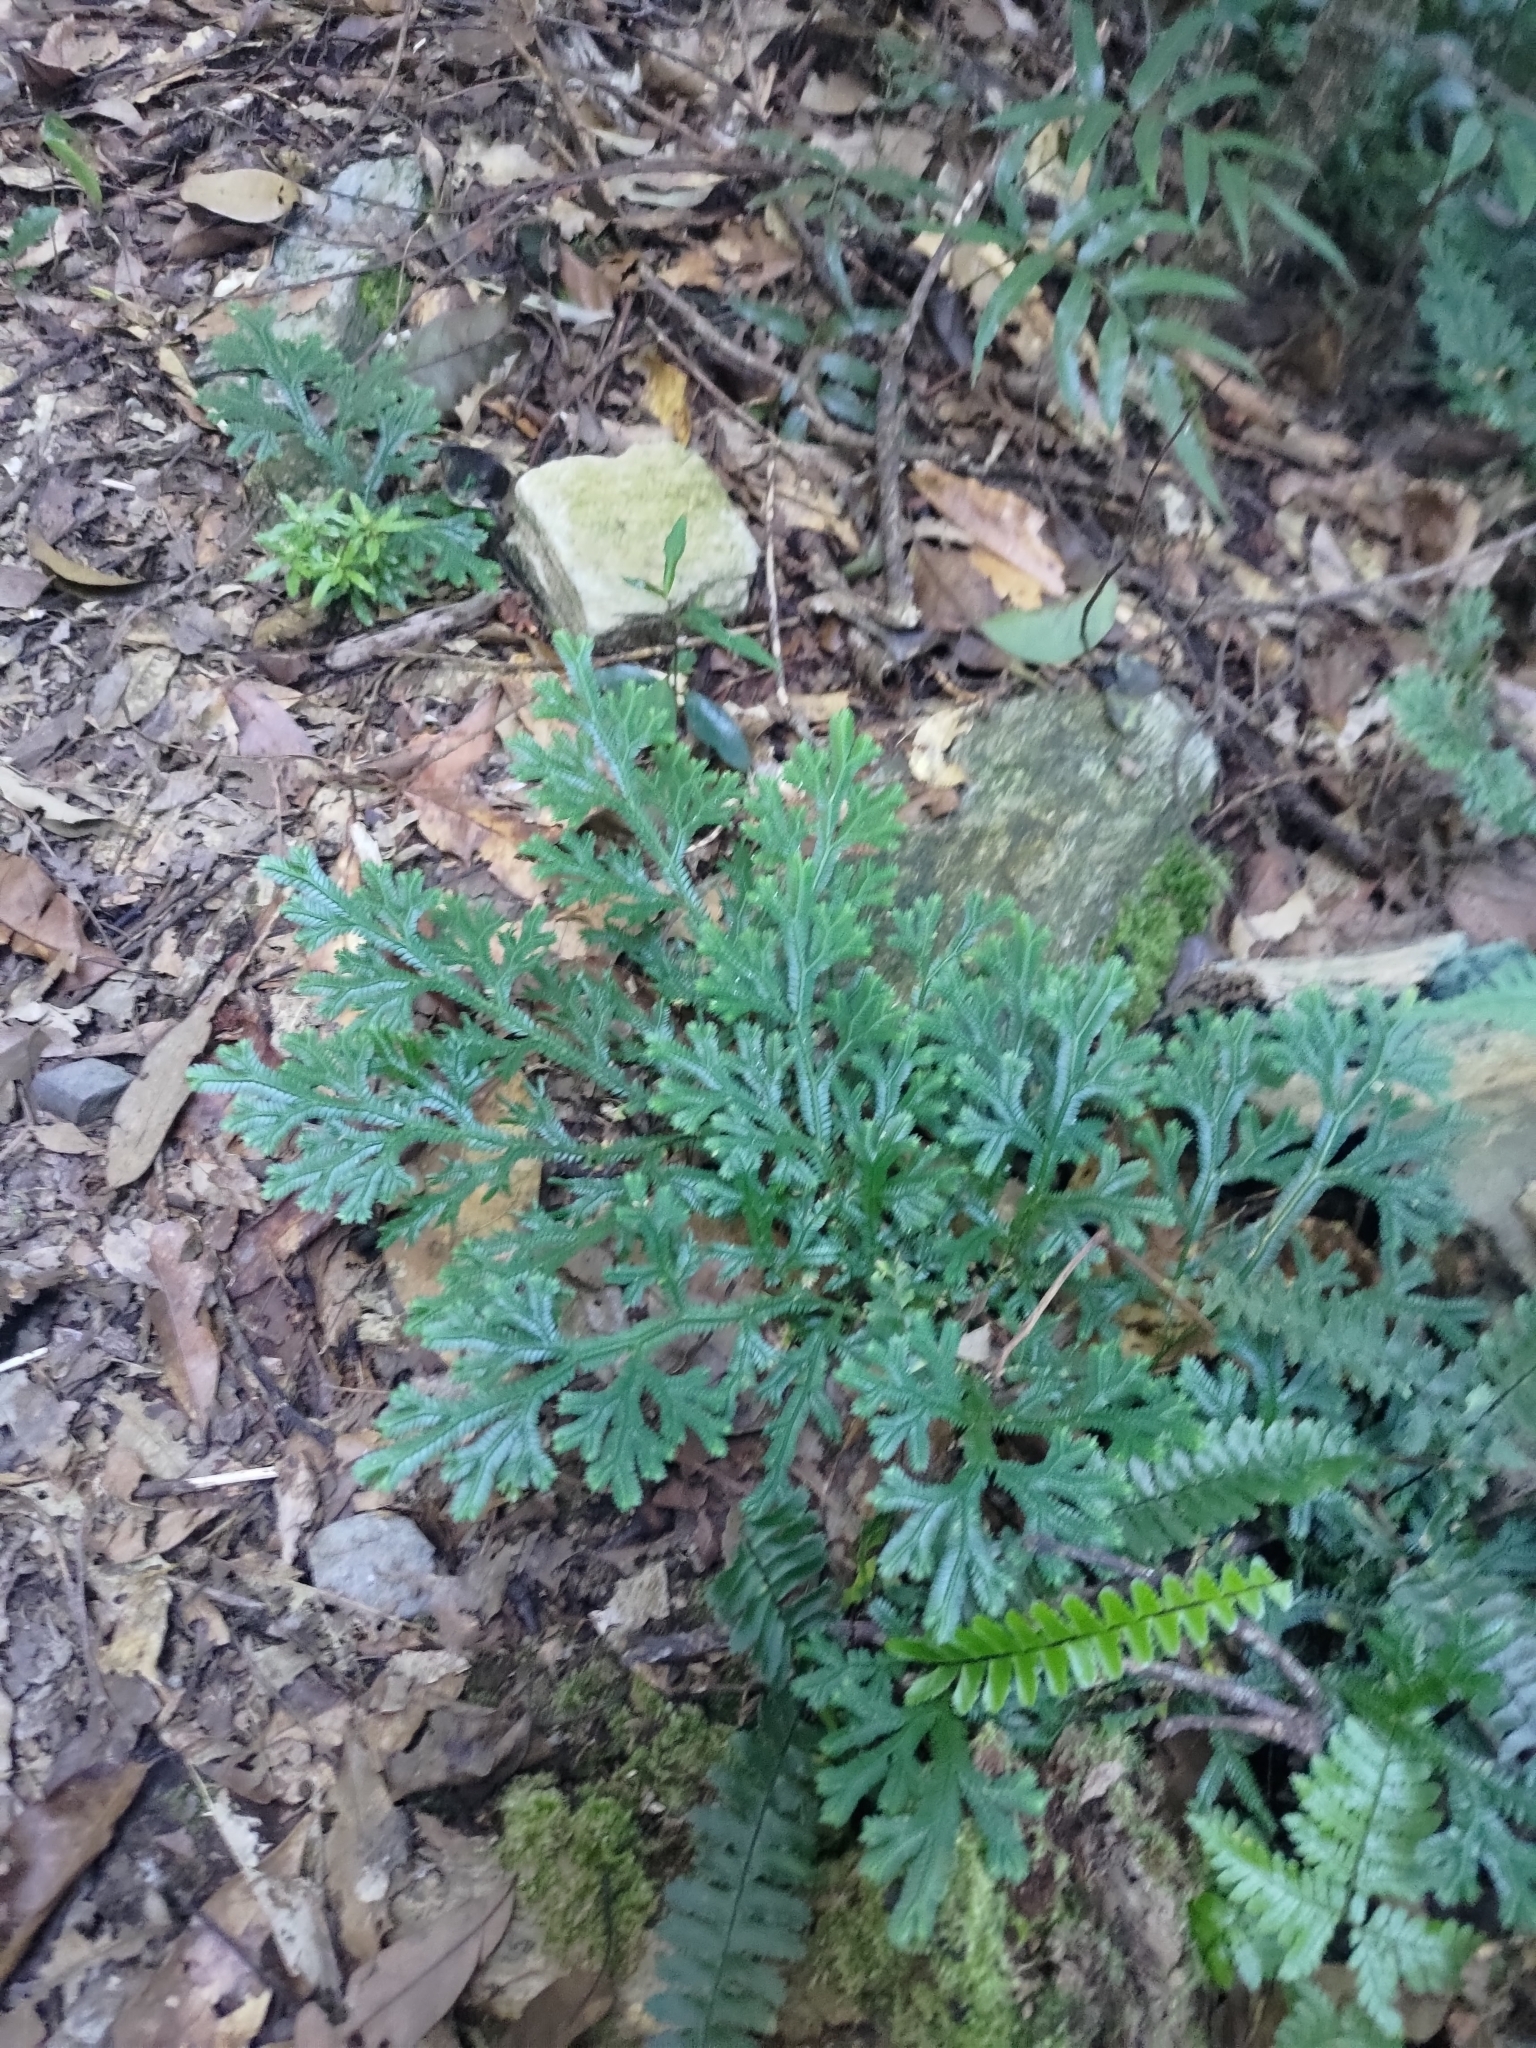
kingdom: Plantae
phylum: Tracheophyta
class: Lycopodiopsida
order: Selaginellales
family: Selaginellaceae
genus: Selaginella
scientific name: Selaginella doederleinii
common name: Greater selaginella
